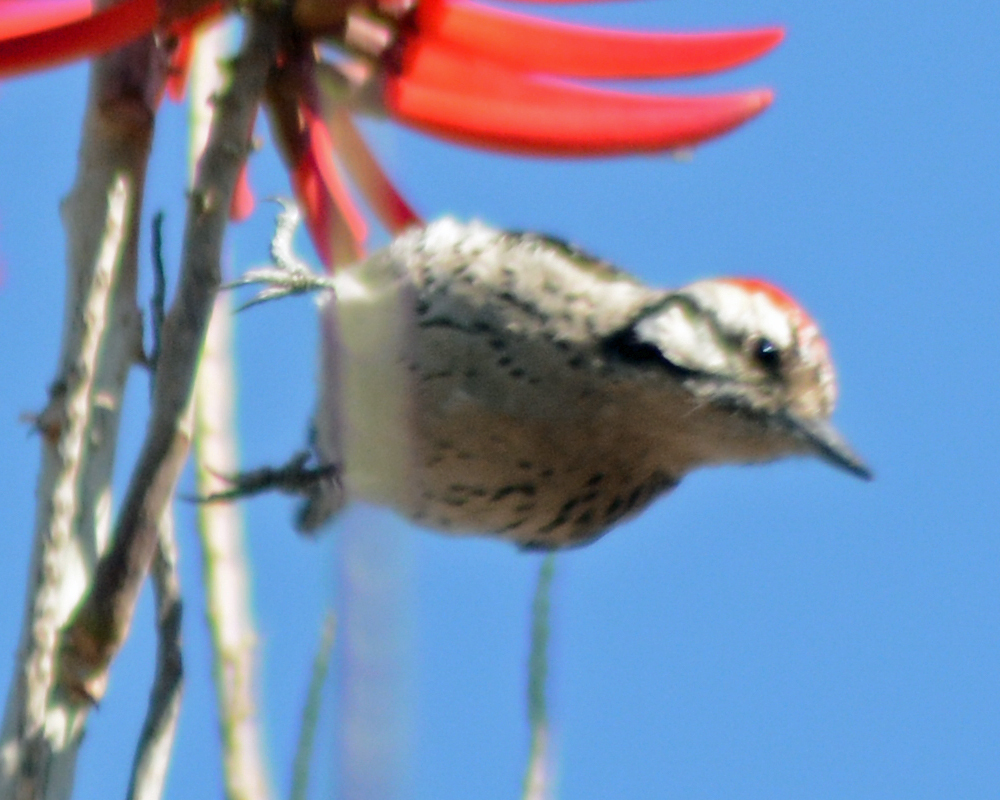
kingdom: Animalia
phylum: Chordata
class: Aves
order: Piciformes
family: Picidae
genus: Dryobates
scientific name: Dryobates scalaris
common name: Ladder-backed woodpecker
